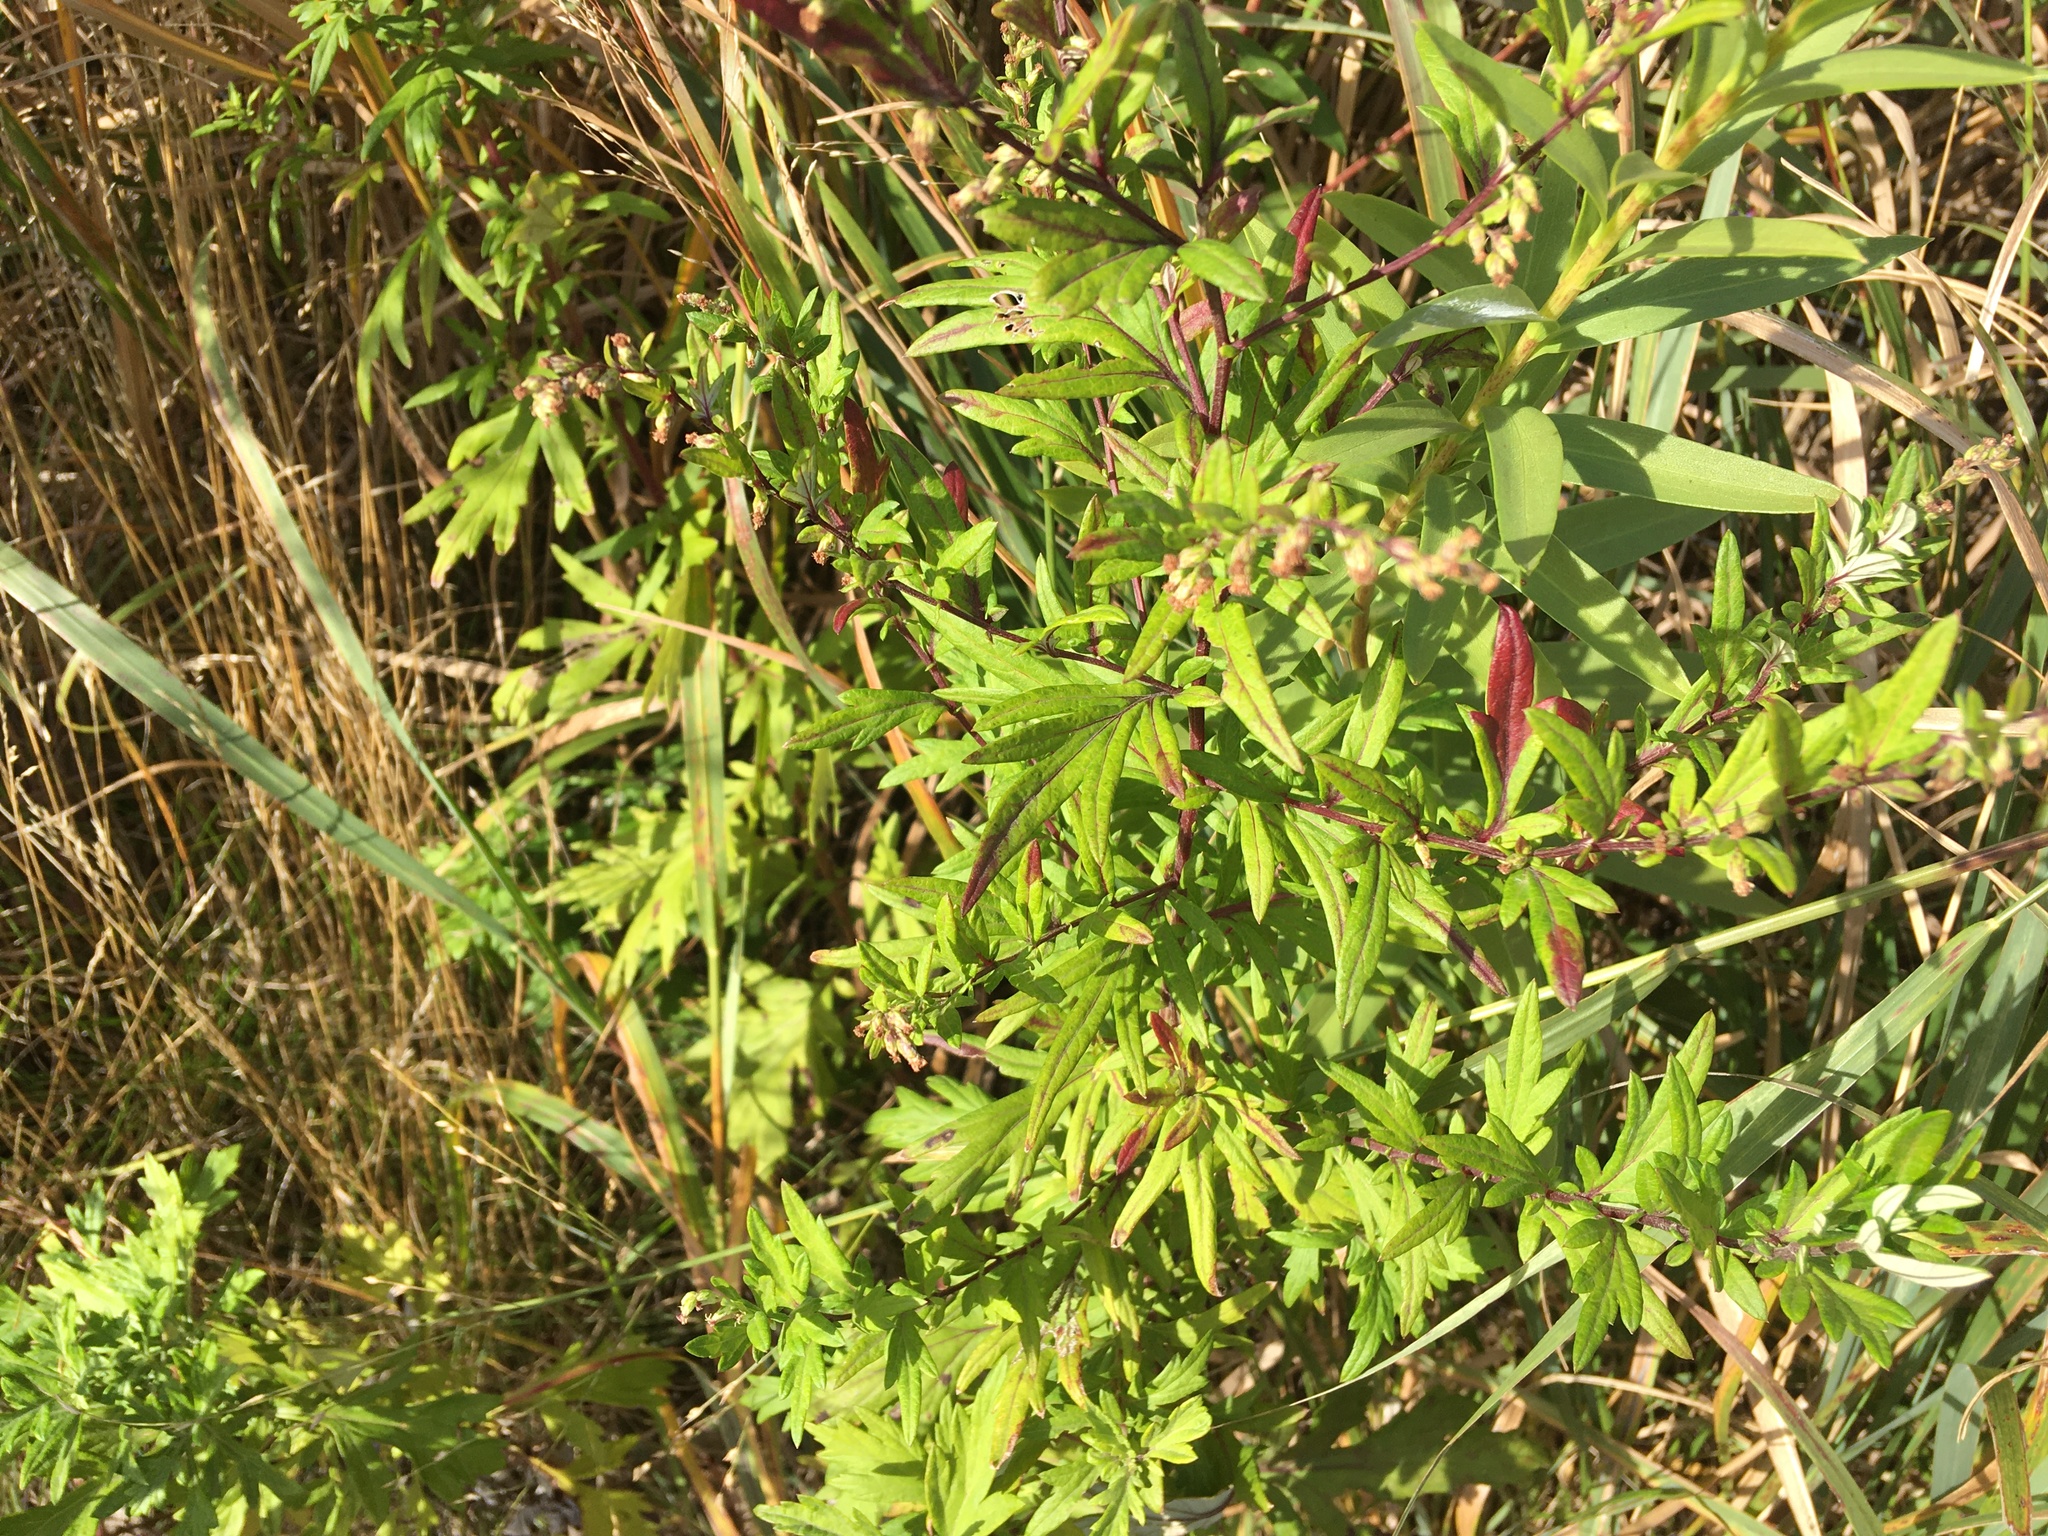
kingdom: Plantae
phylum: Tracheophyta
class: Magnoliopsida
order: Asterales
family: Asteraceae
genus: Artemisia
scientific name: Artemisia vulgaris
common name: Mugwort
